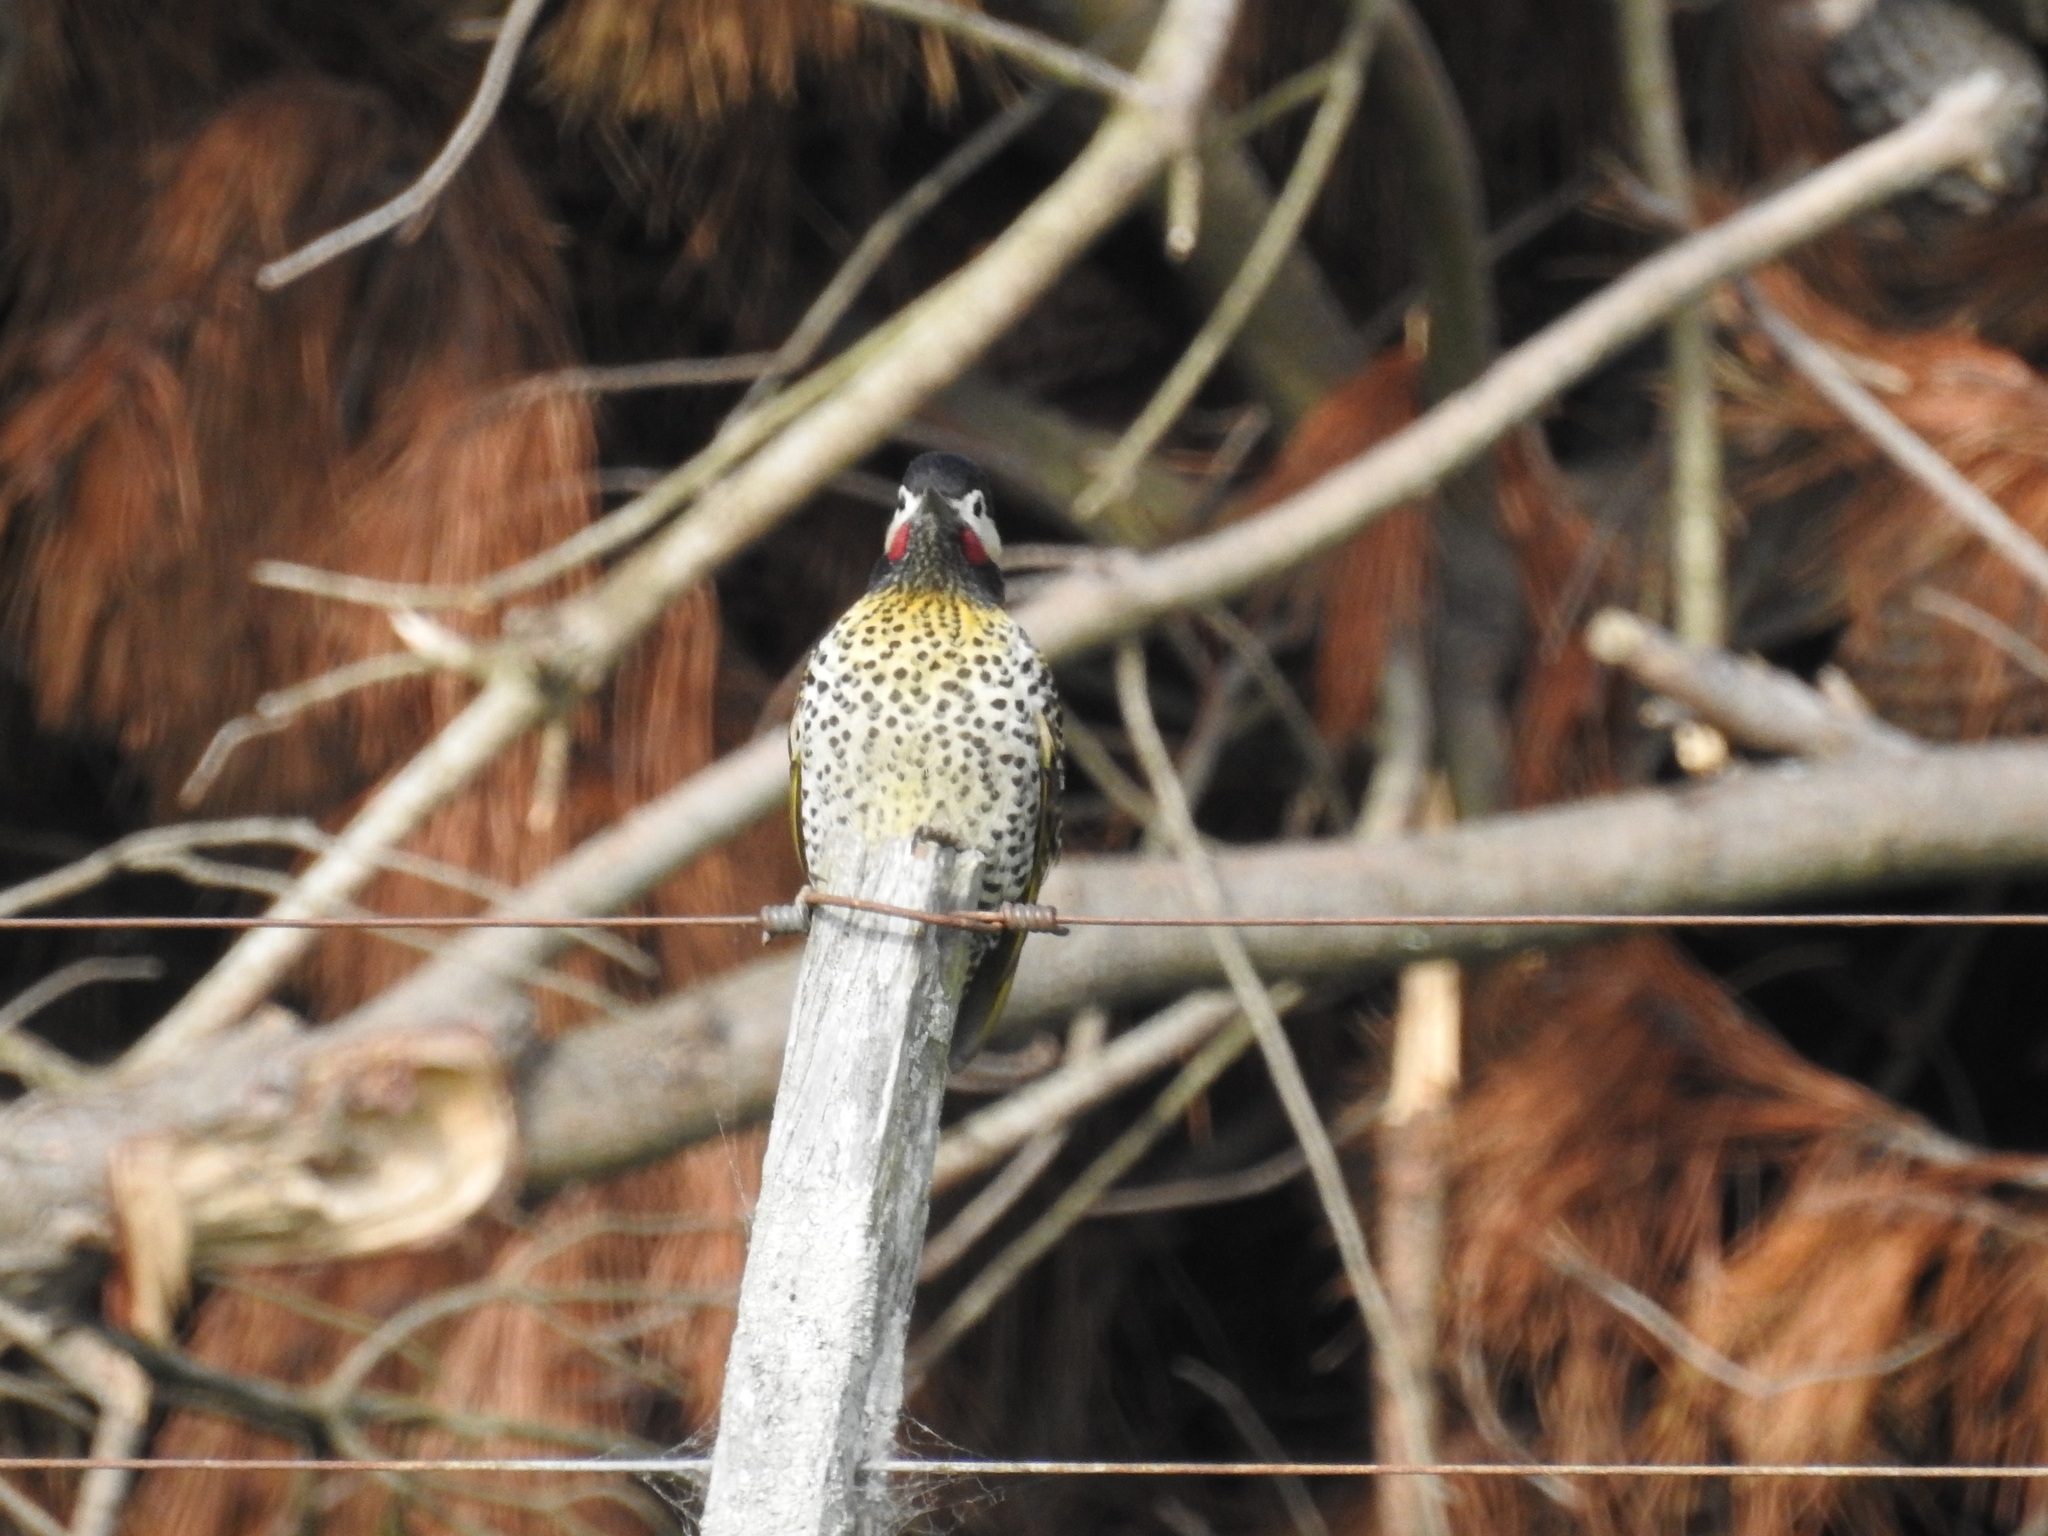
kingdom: Animalia
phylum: Chordata
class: Aves
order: Piciformes
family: Picidae
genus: Colaptes
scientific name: Colaptes melanochloros
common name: Green-barred woodpecker
